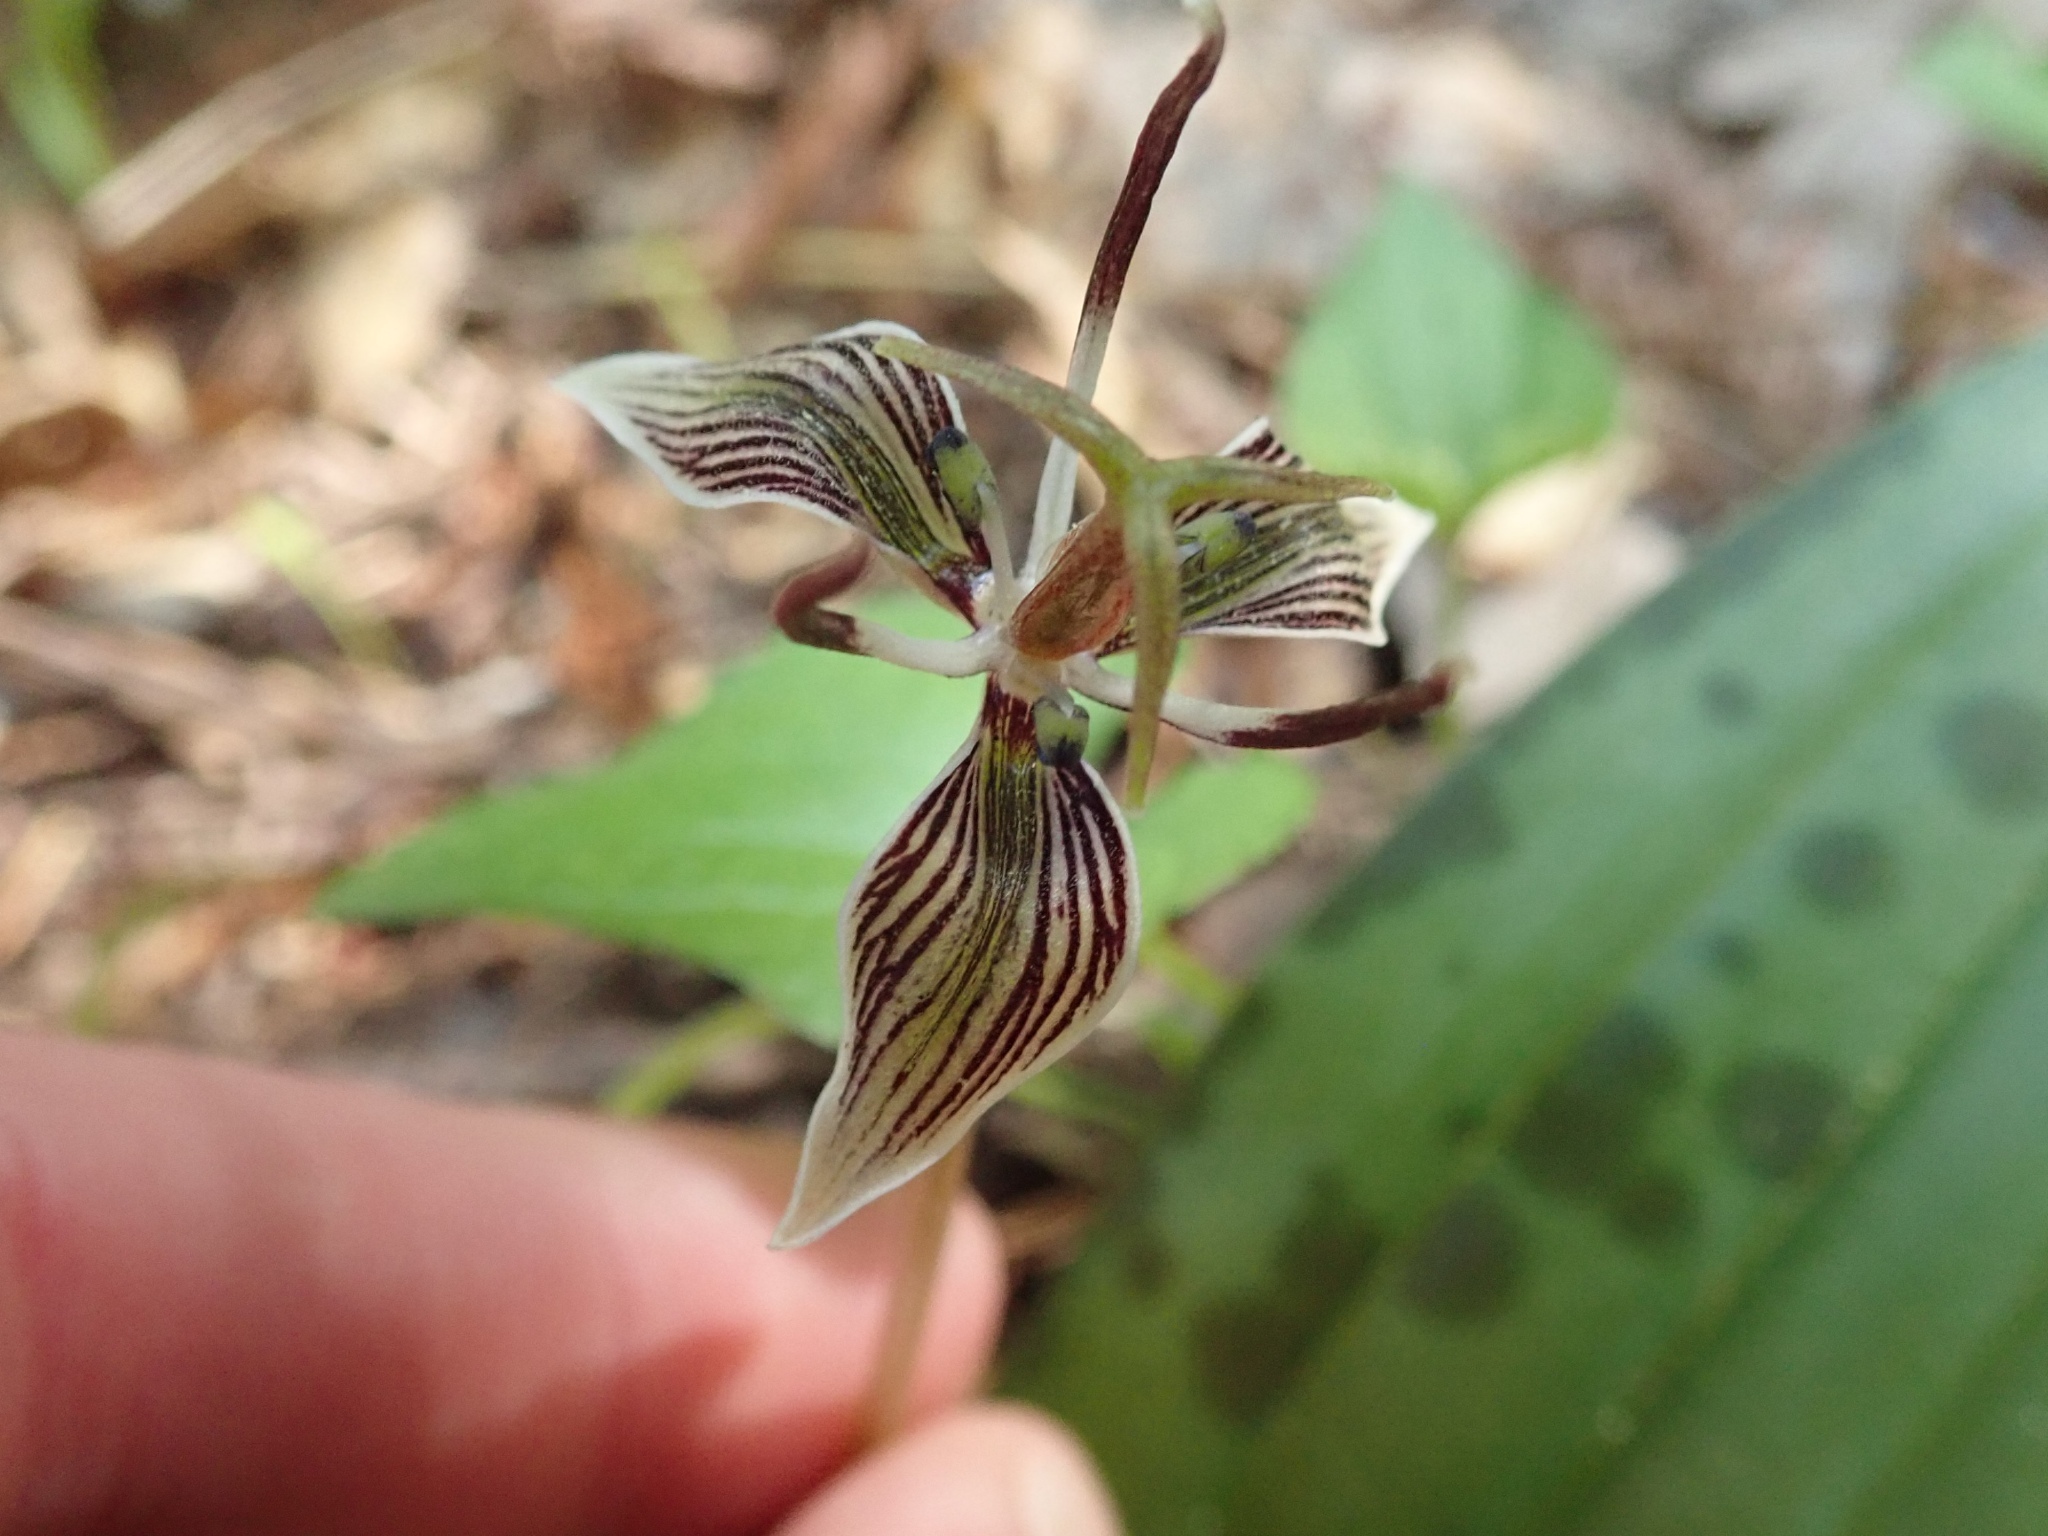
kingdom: Plantae
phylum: Tracheophyta
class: Liliopsida
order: Liliales
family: Liliaceae
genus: Scoliopus
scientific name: Scoliopus bigelovii
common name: Foetid adder's-tongue
